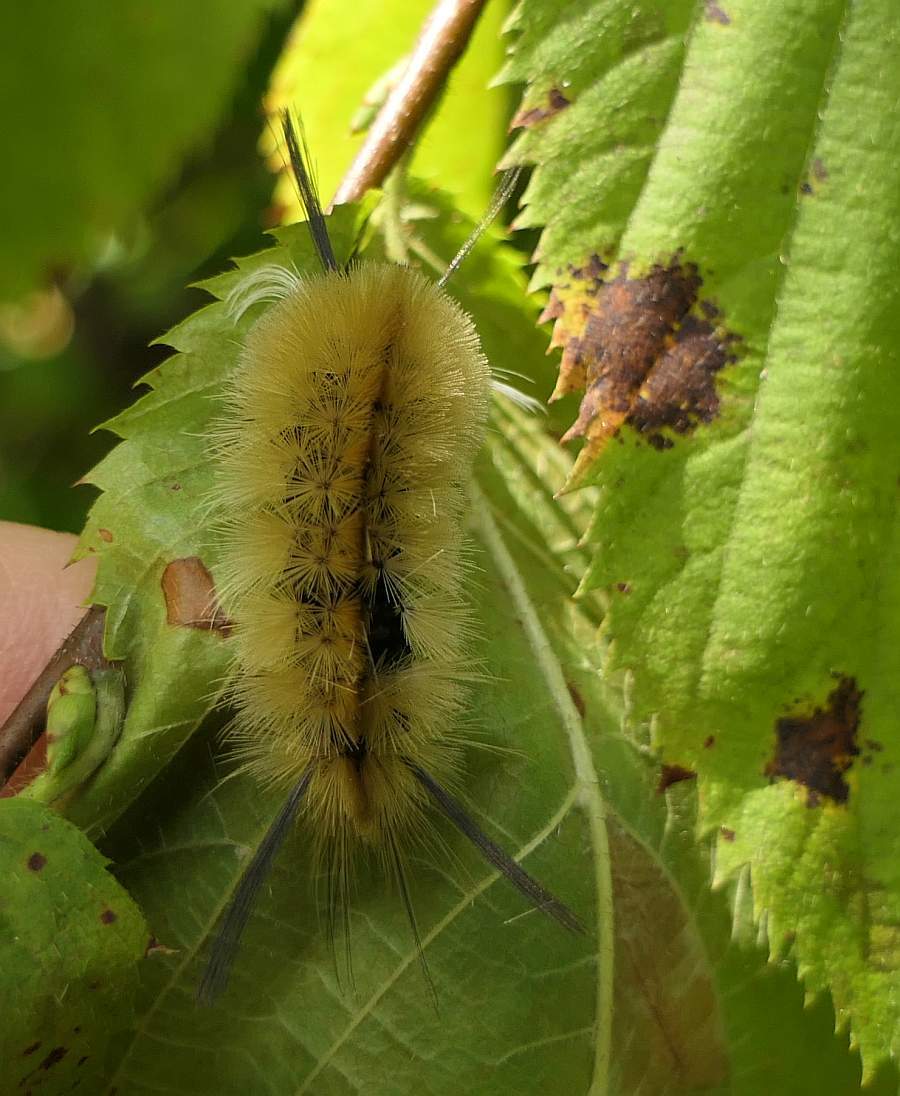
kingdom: Animalia
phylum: Arthropoda
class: Insecta
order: Lepidoptera
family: Erebidae
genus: Halysidota
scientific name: Halysidota tessellaris
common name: Banded tussock moth
